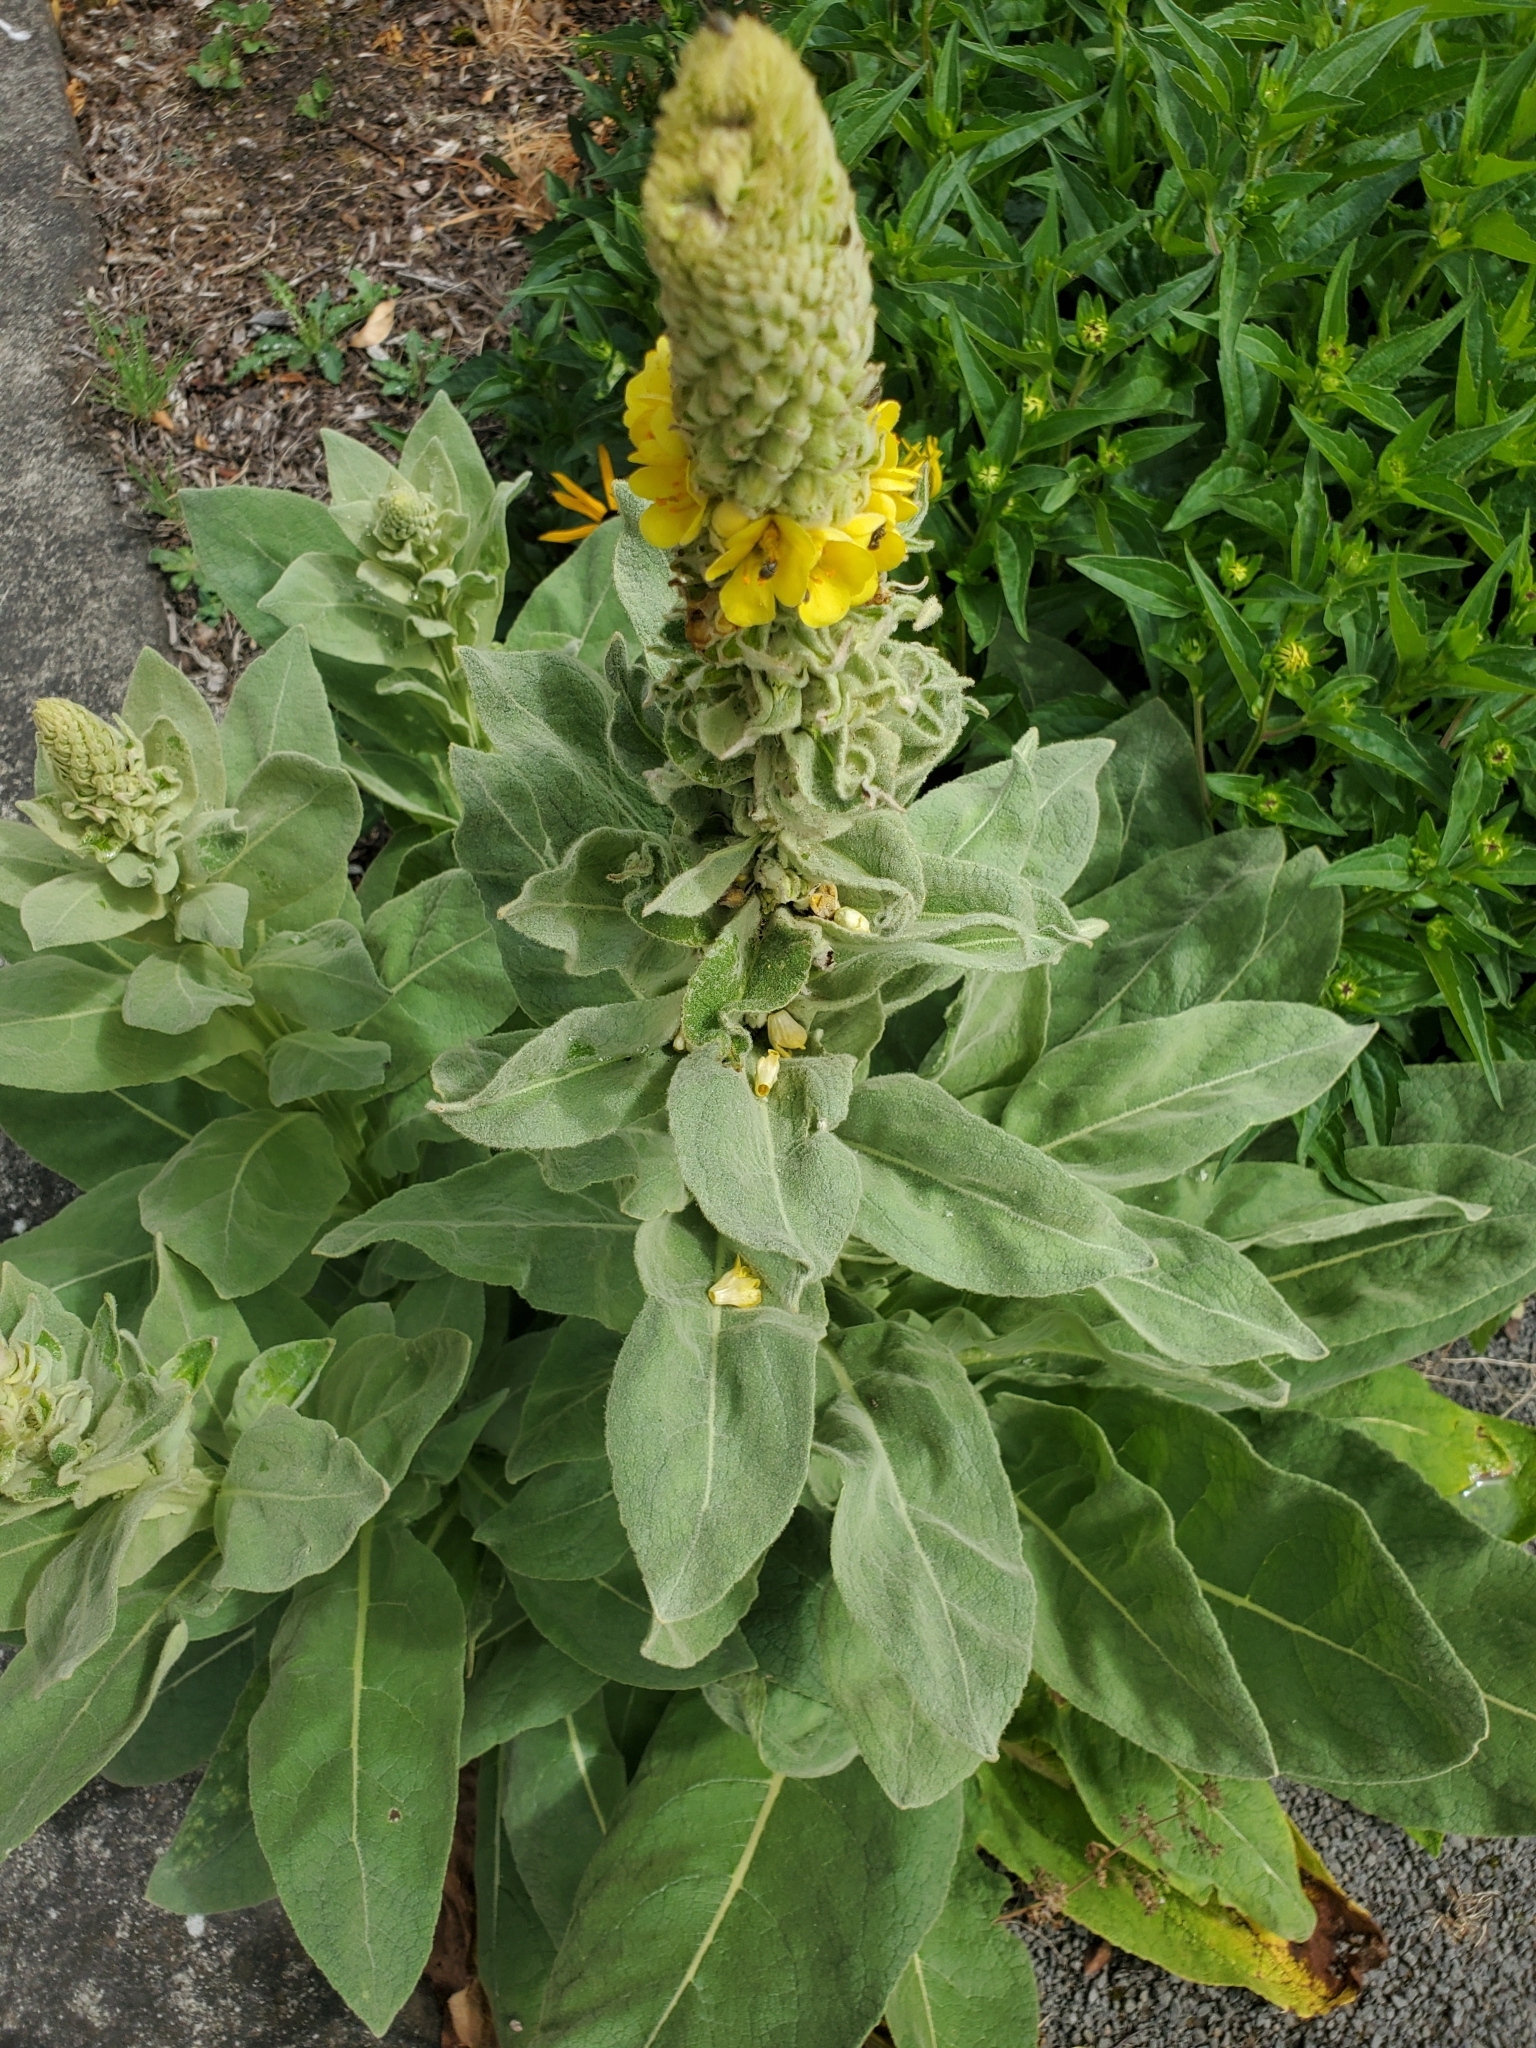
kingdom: Plantae
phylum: Tracheophyta
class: Magnoliopsida
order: Lamiales
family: Scrophulariaceae
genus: Verbascum
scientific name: Verbascum thapsus
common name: Common mullein
